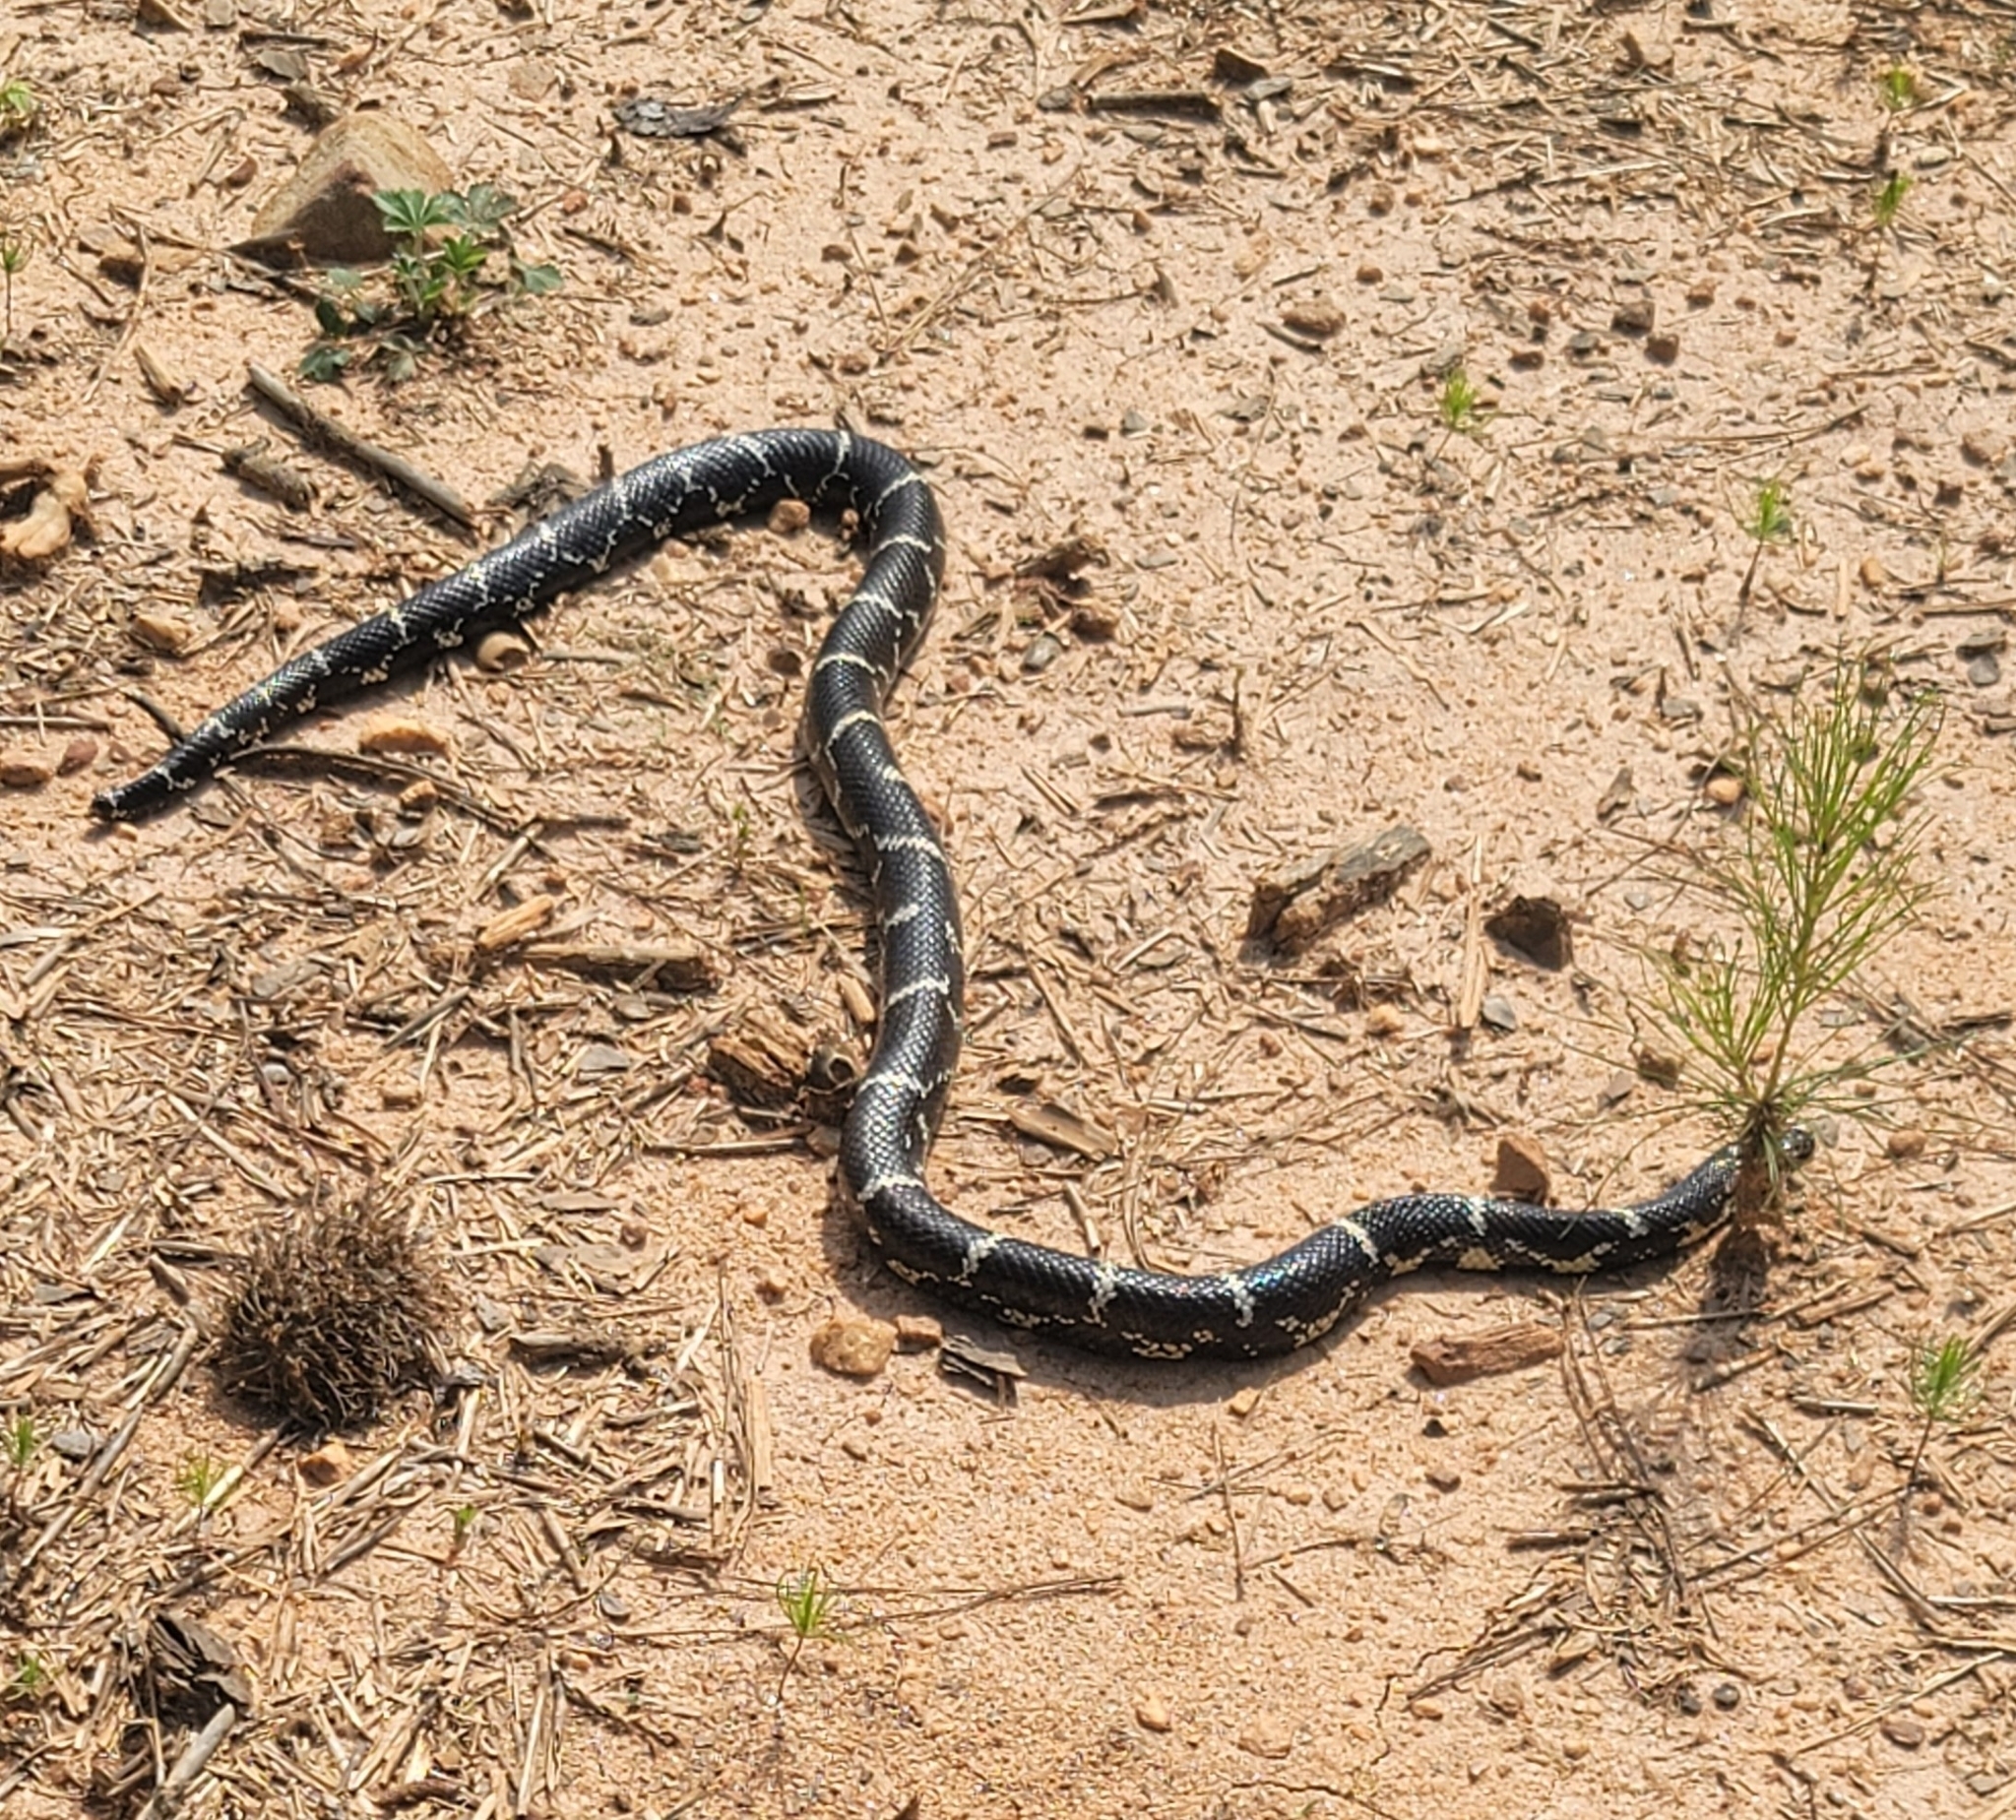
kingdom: Animalia
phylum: Chordata
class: Squamata
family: Colubridae
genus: Lampropeltis
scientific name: Lampropeltis getula
